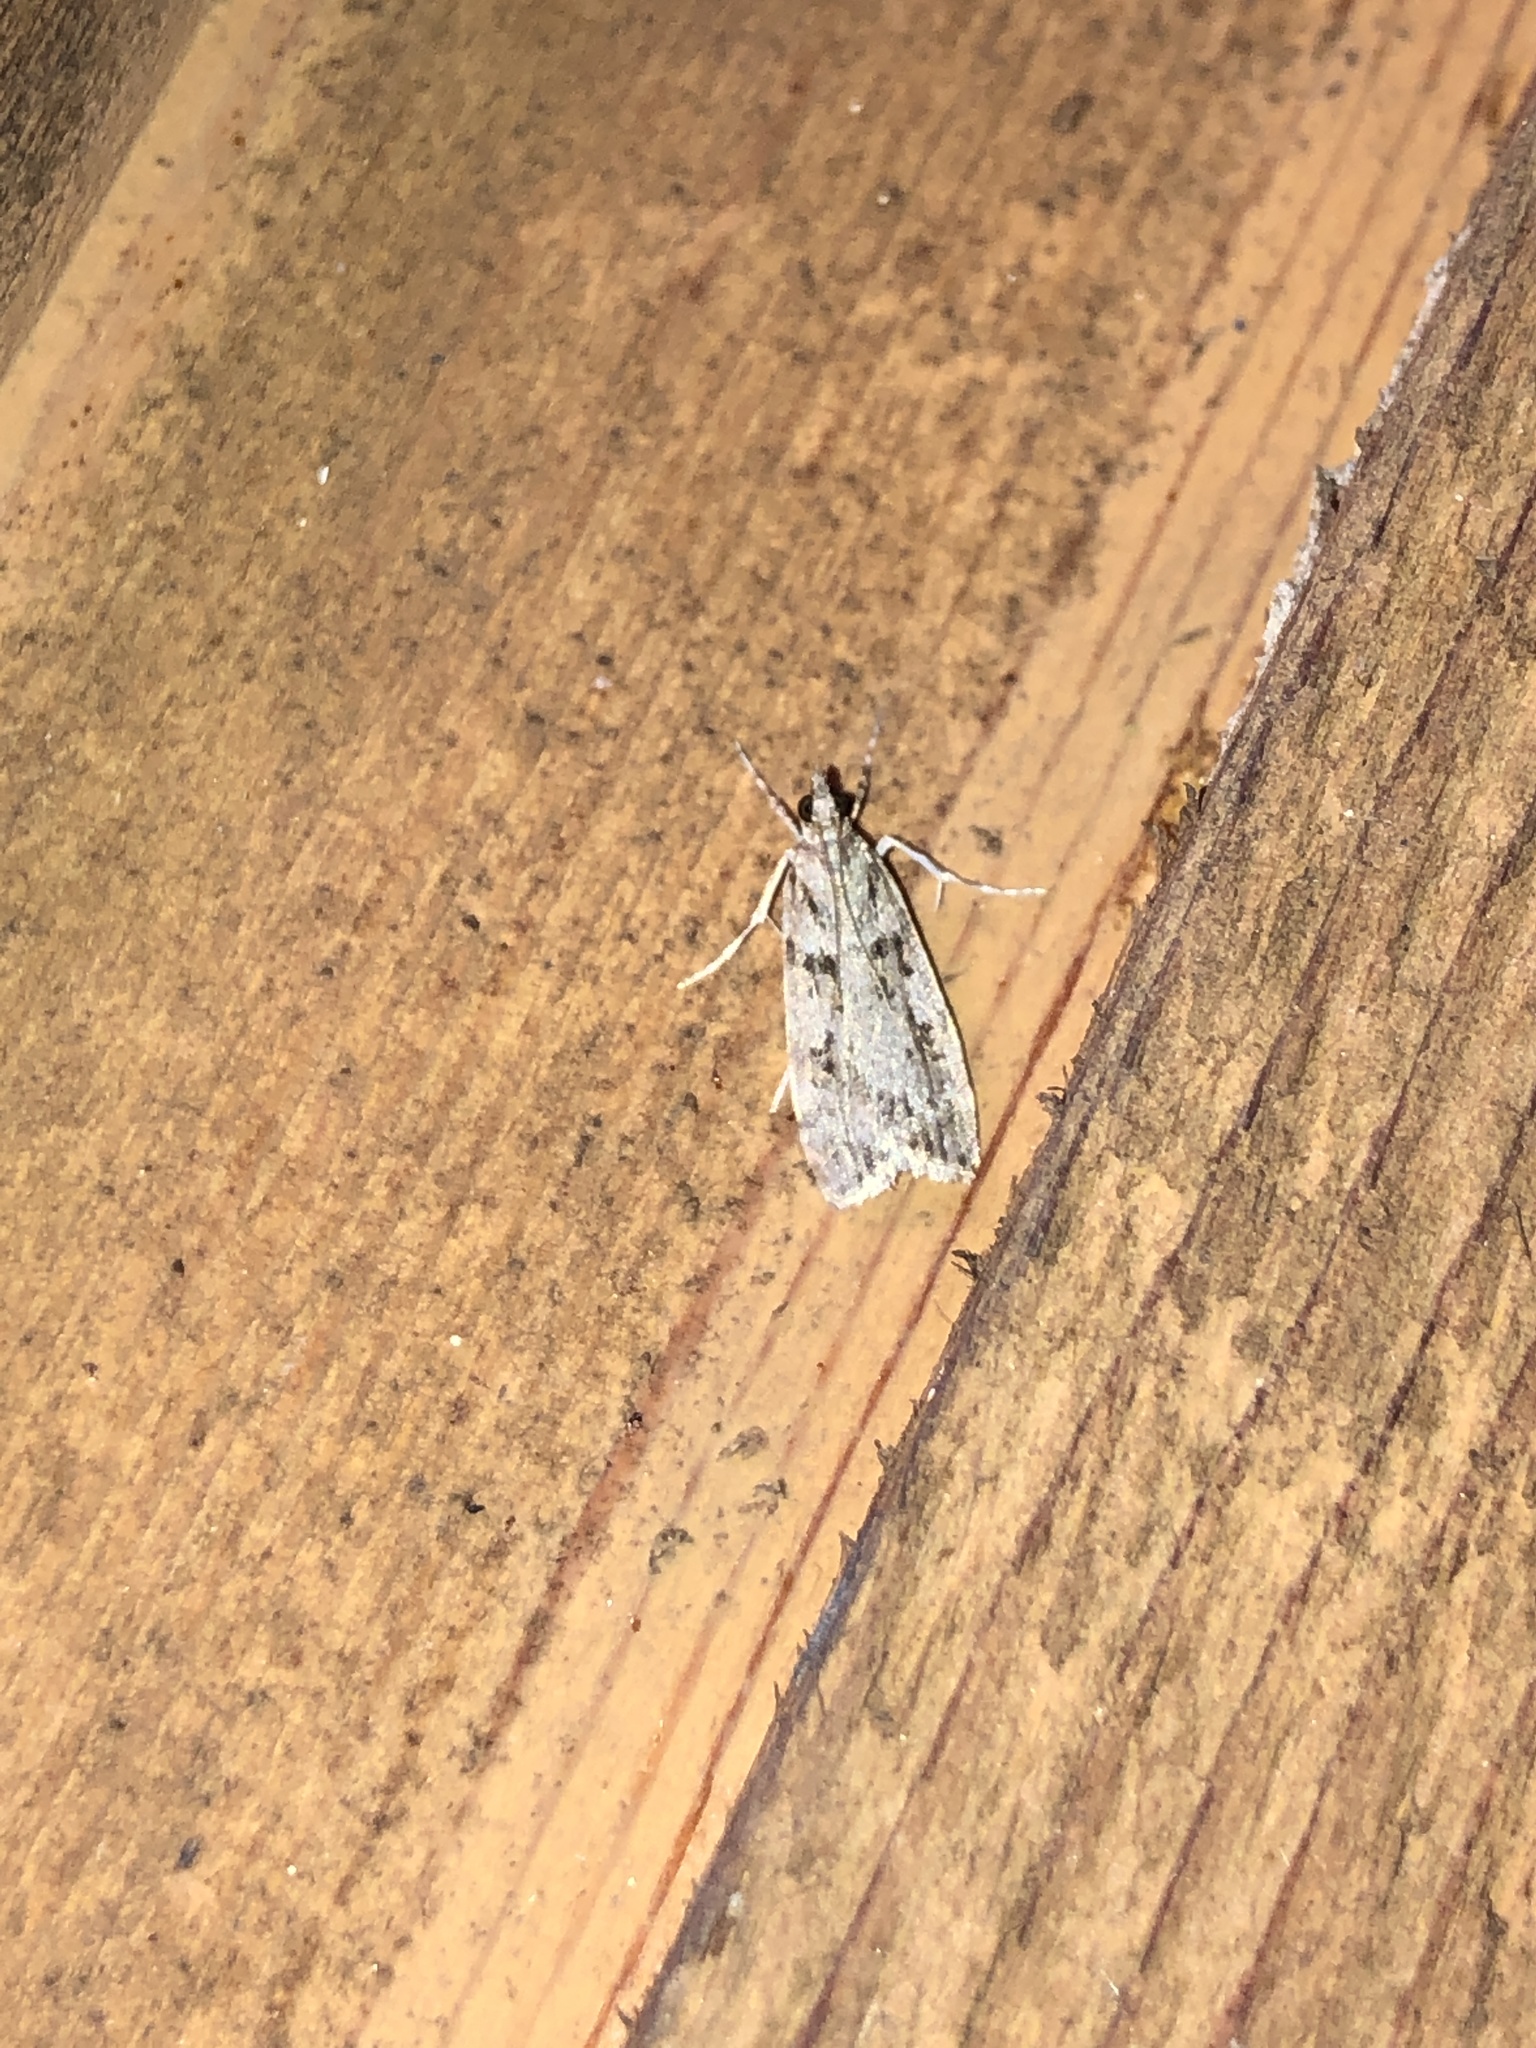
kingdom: Animalia
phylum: Arthropoda
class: Insecta
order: Lepidoptera
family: Crambidae
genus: Scoparia
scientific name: Scoparia biplagialis
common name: Double-striped scoparia moth
